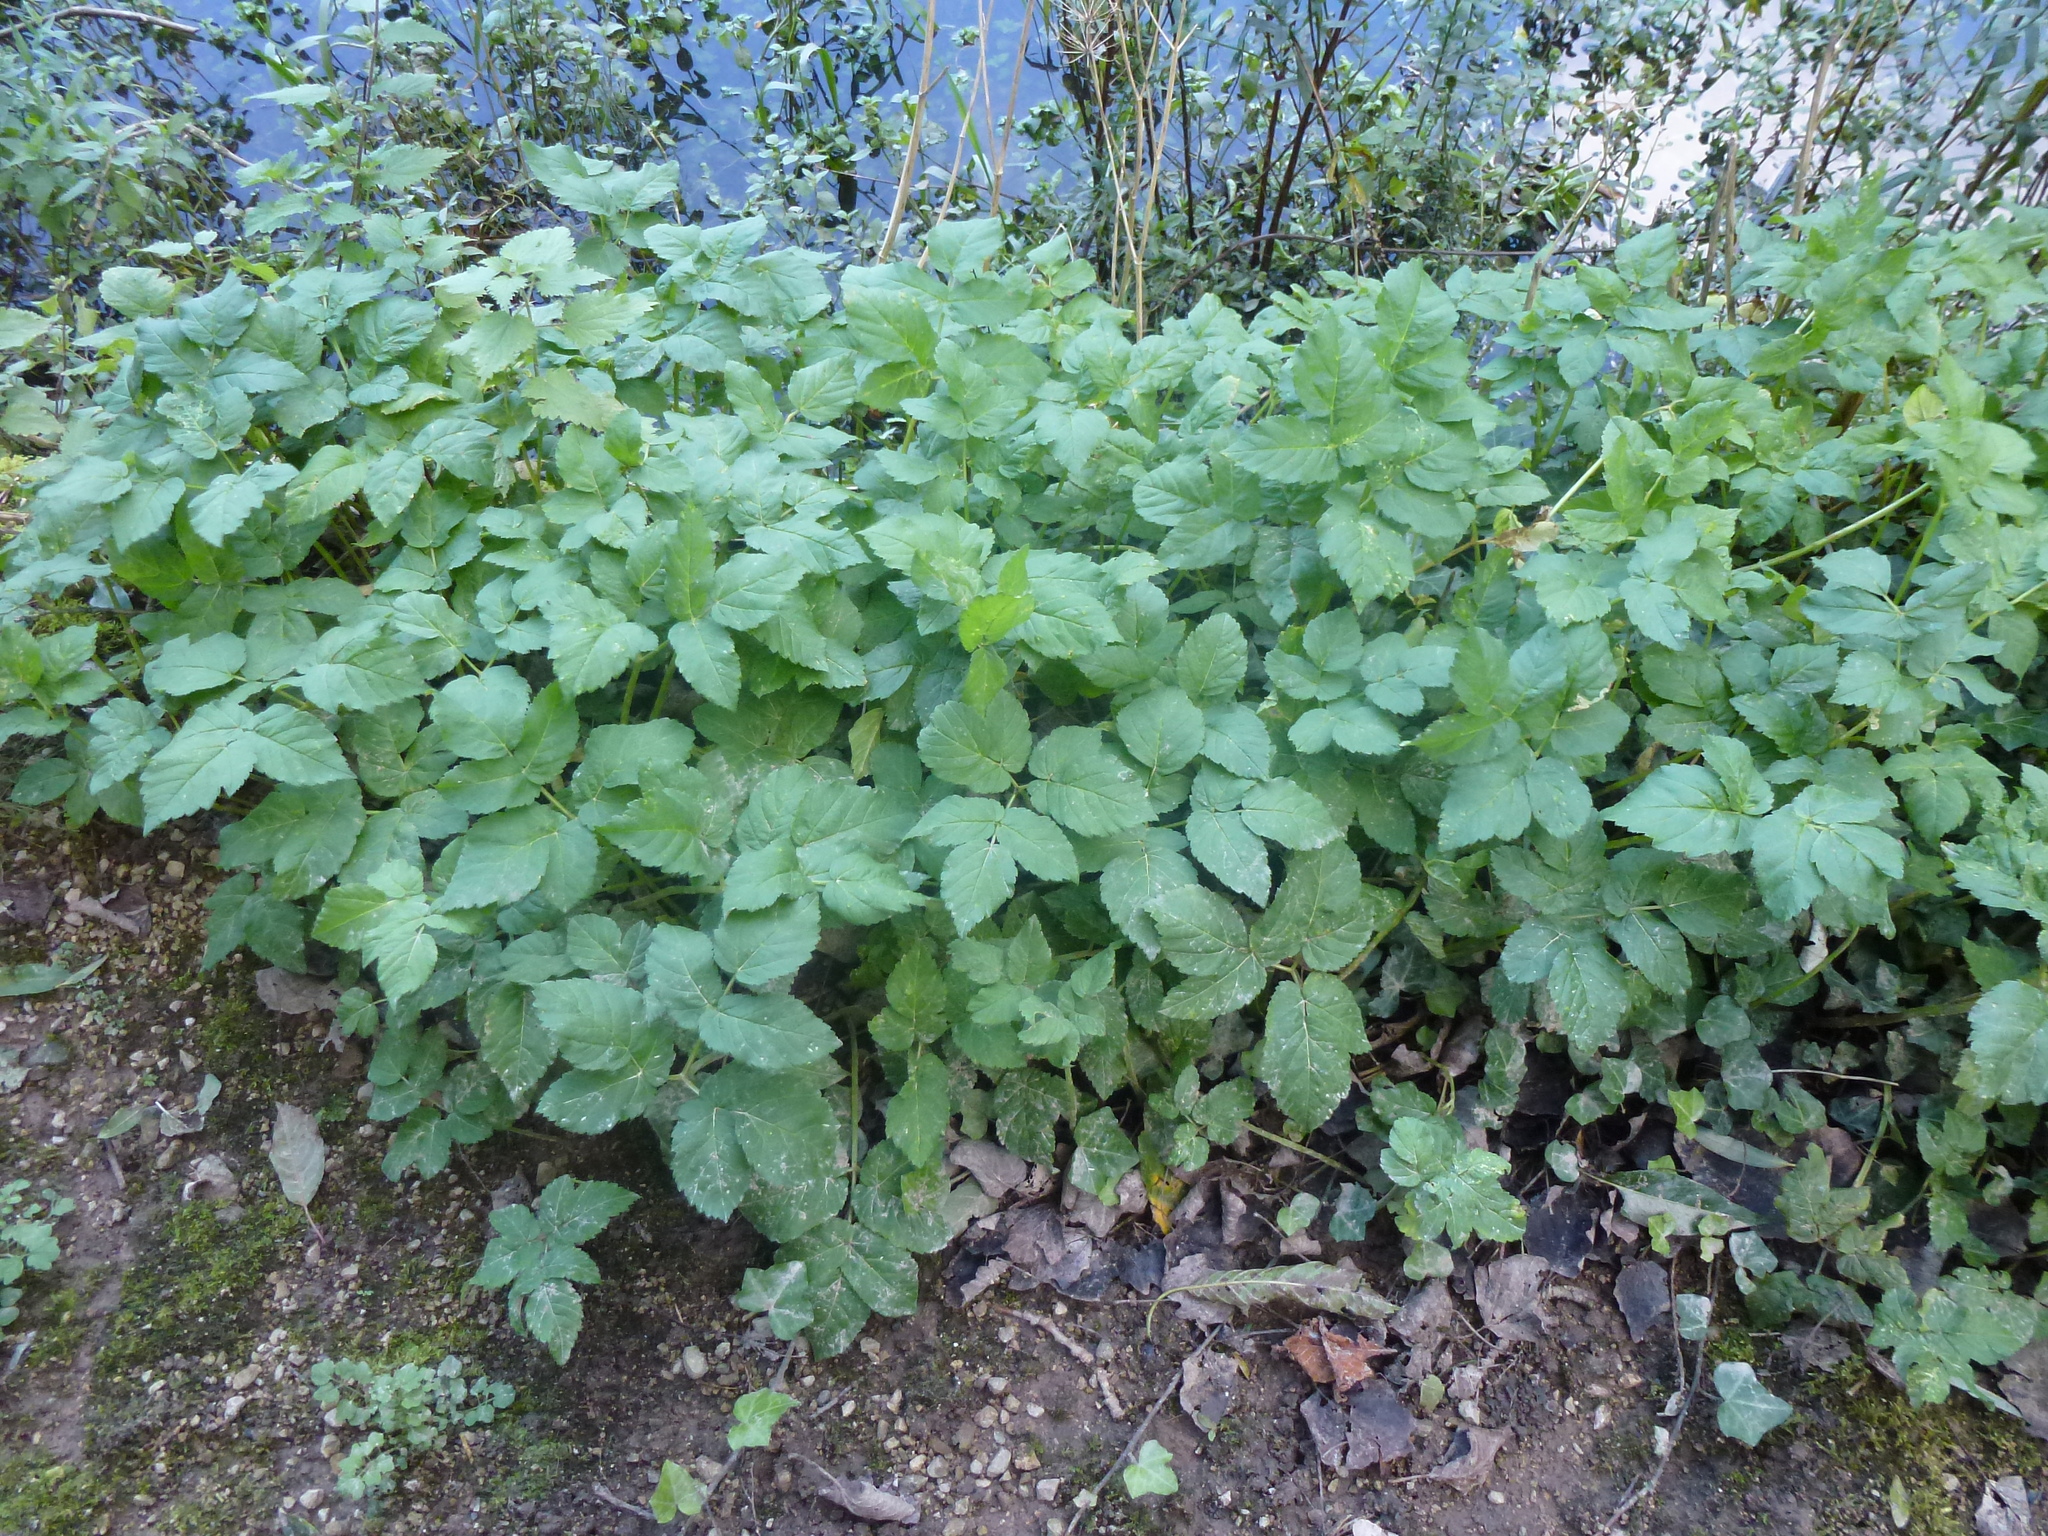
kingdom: Plantae
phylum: Tracheophyta
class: Magnoliopsida
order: Apiales
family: Apiaceae
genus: Aegopodium
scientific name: Aegopodium podagraria
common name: Ground-elder
